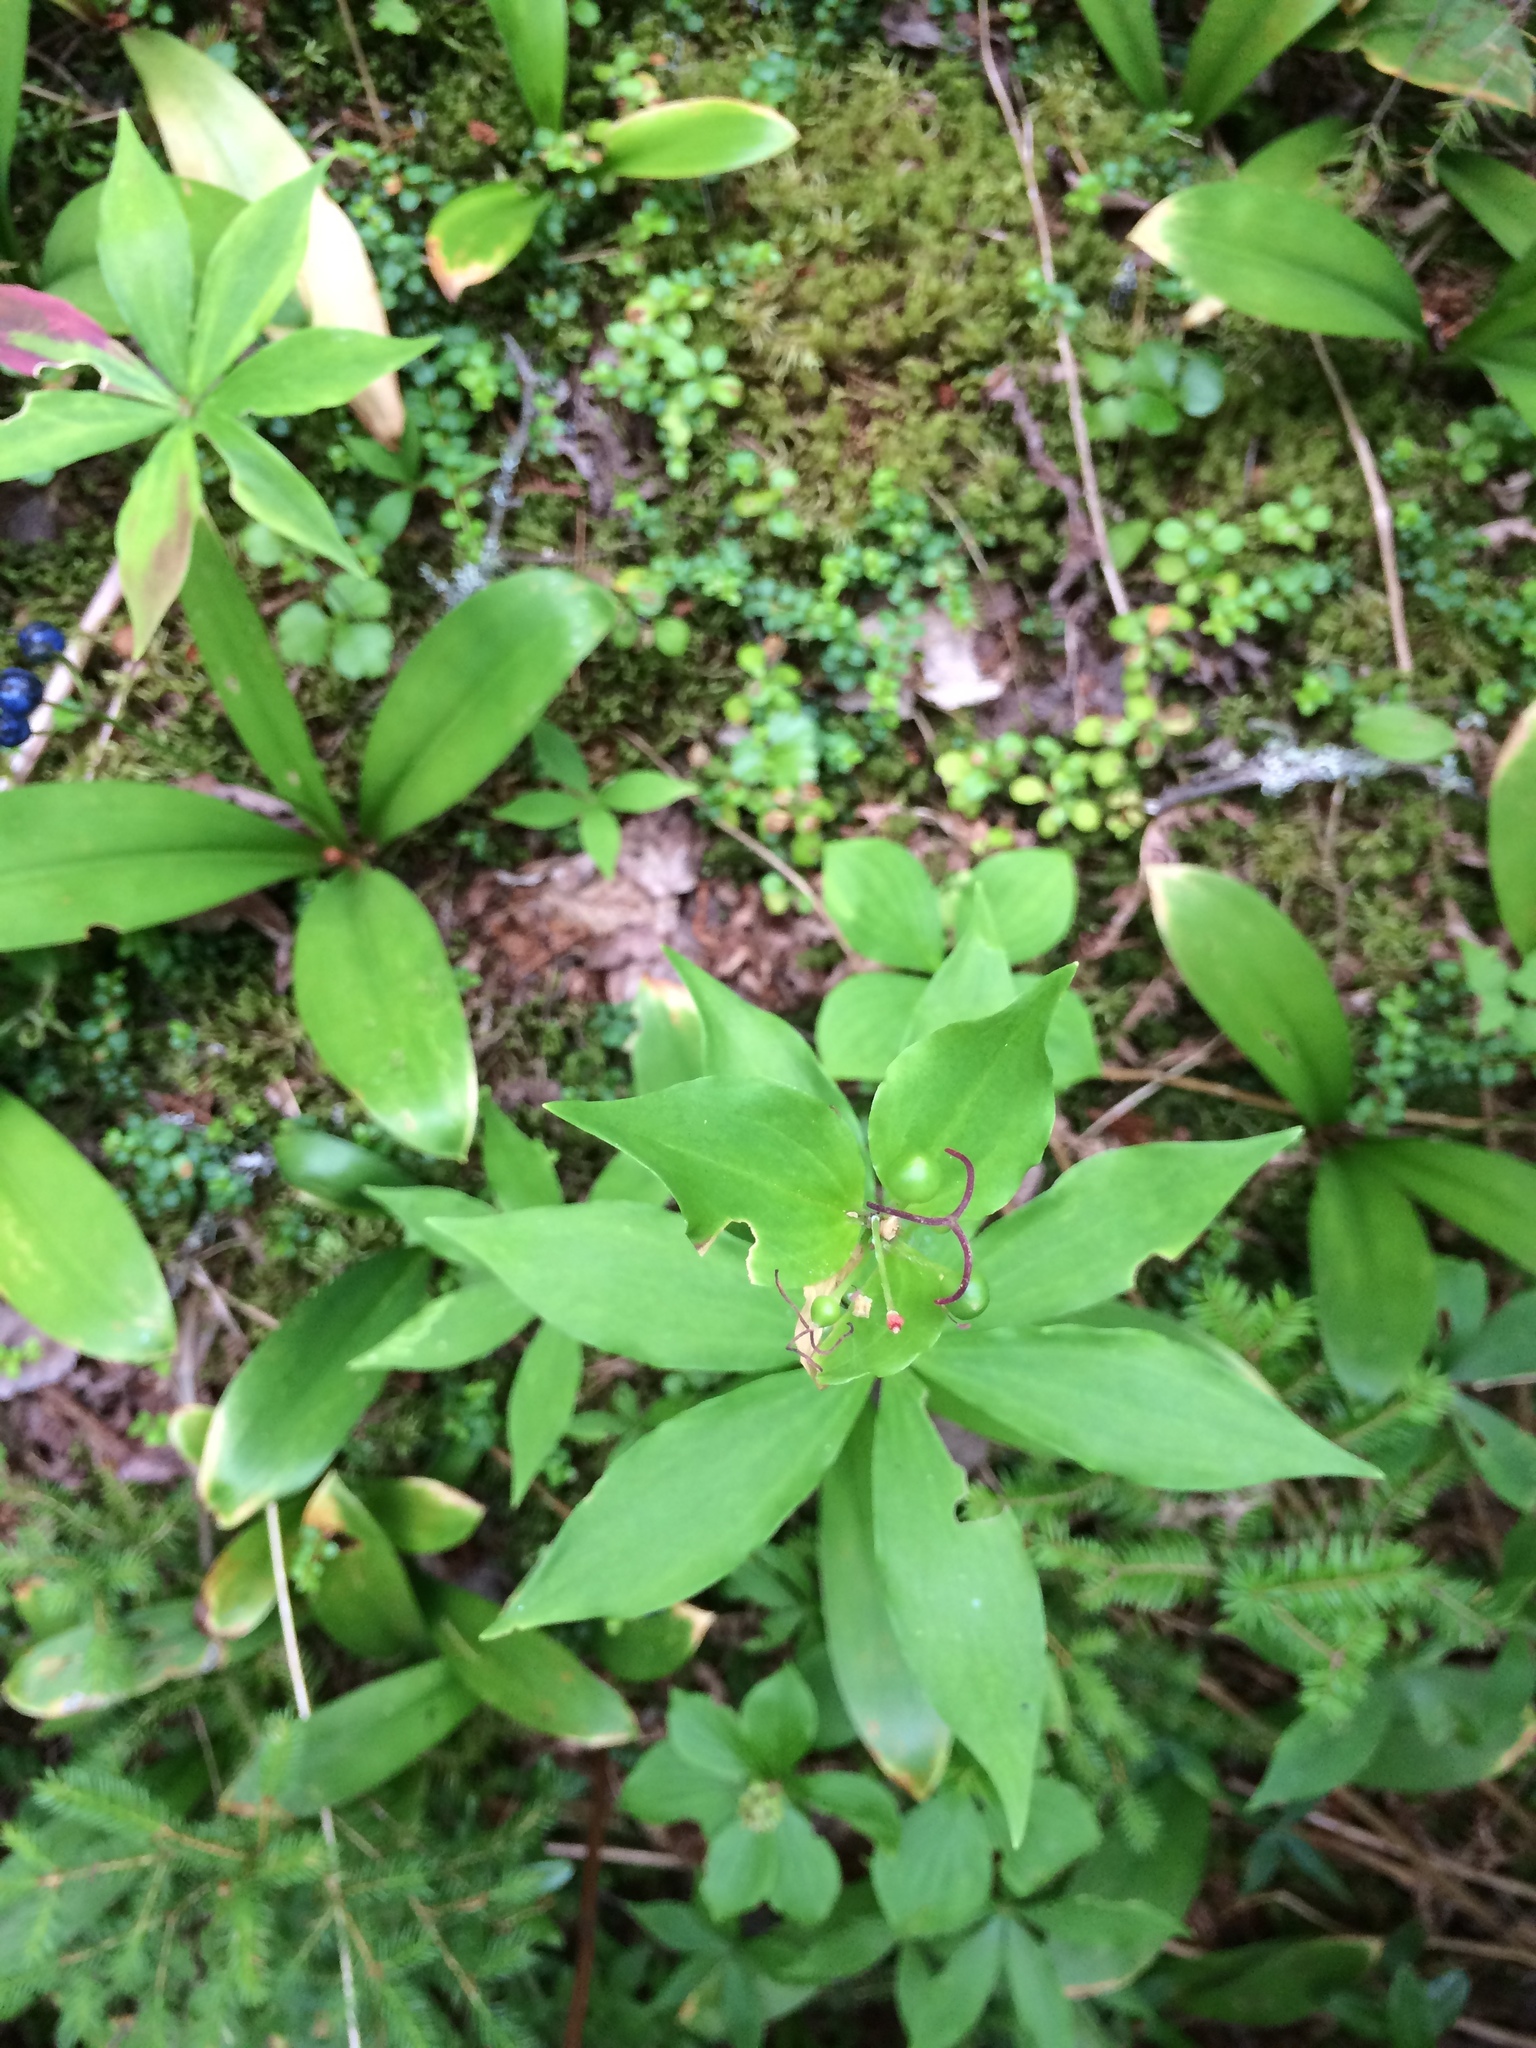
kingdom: Plantae
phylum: Tracheophyta
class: Liliopsida
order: Liliales
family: Liliaceae
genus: Medeola
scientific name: Medeola virginiana
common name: Indian cucumber-root
